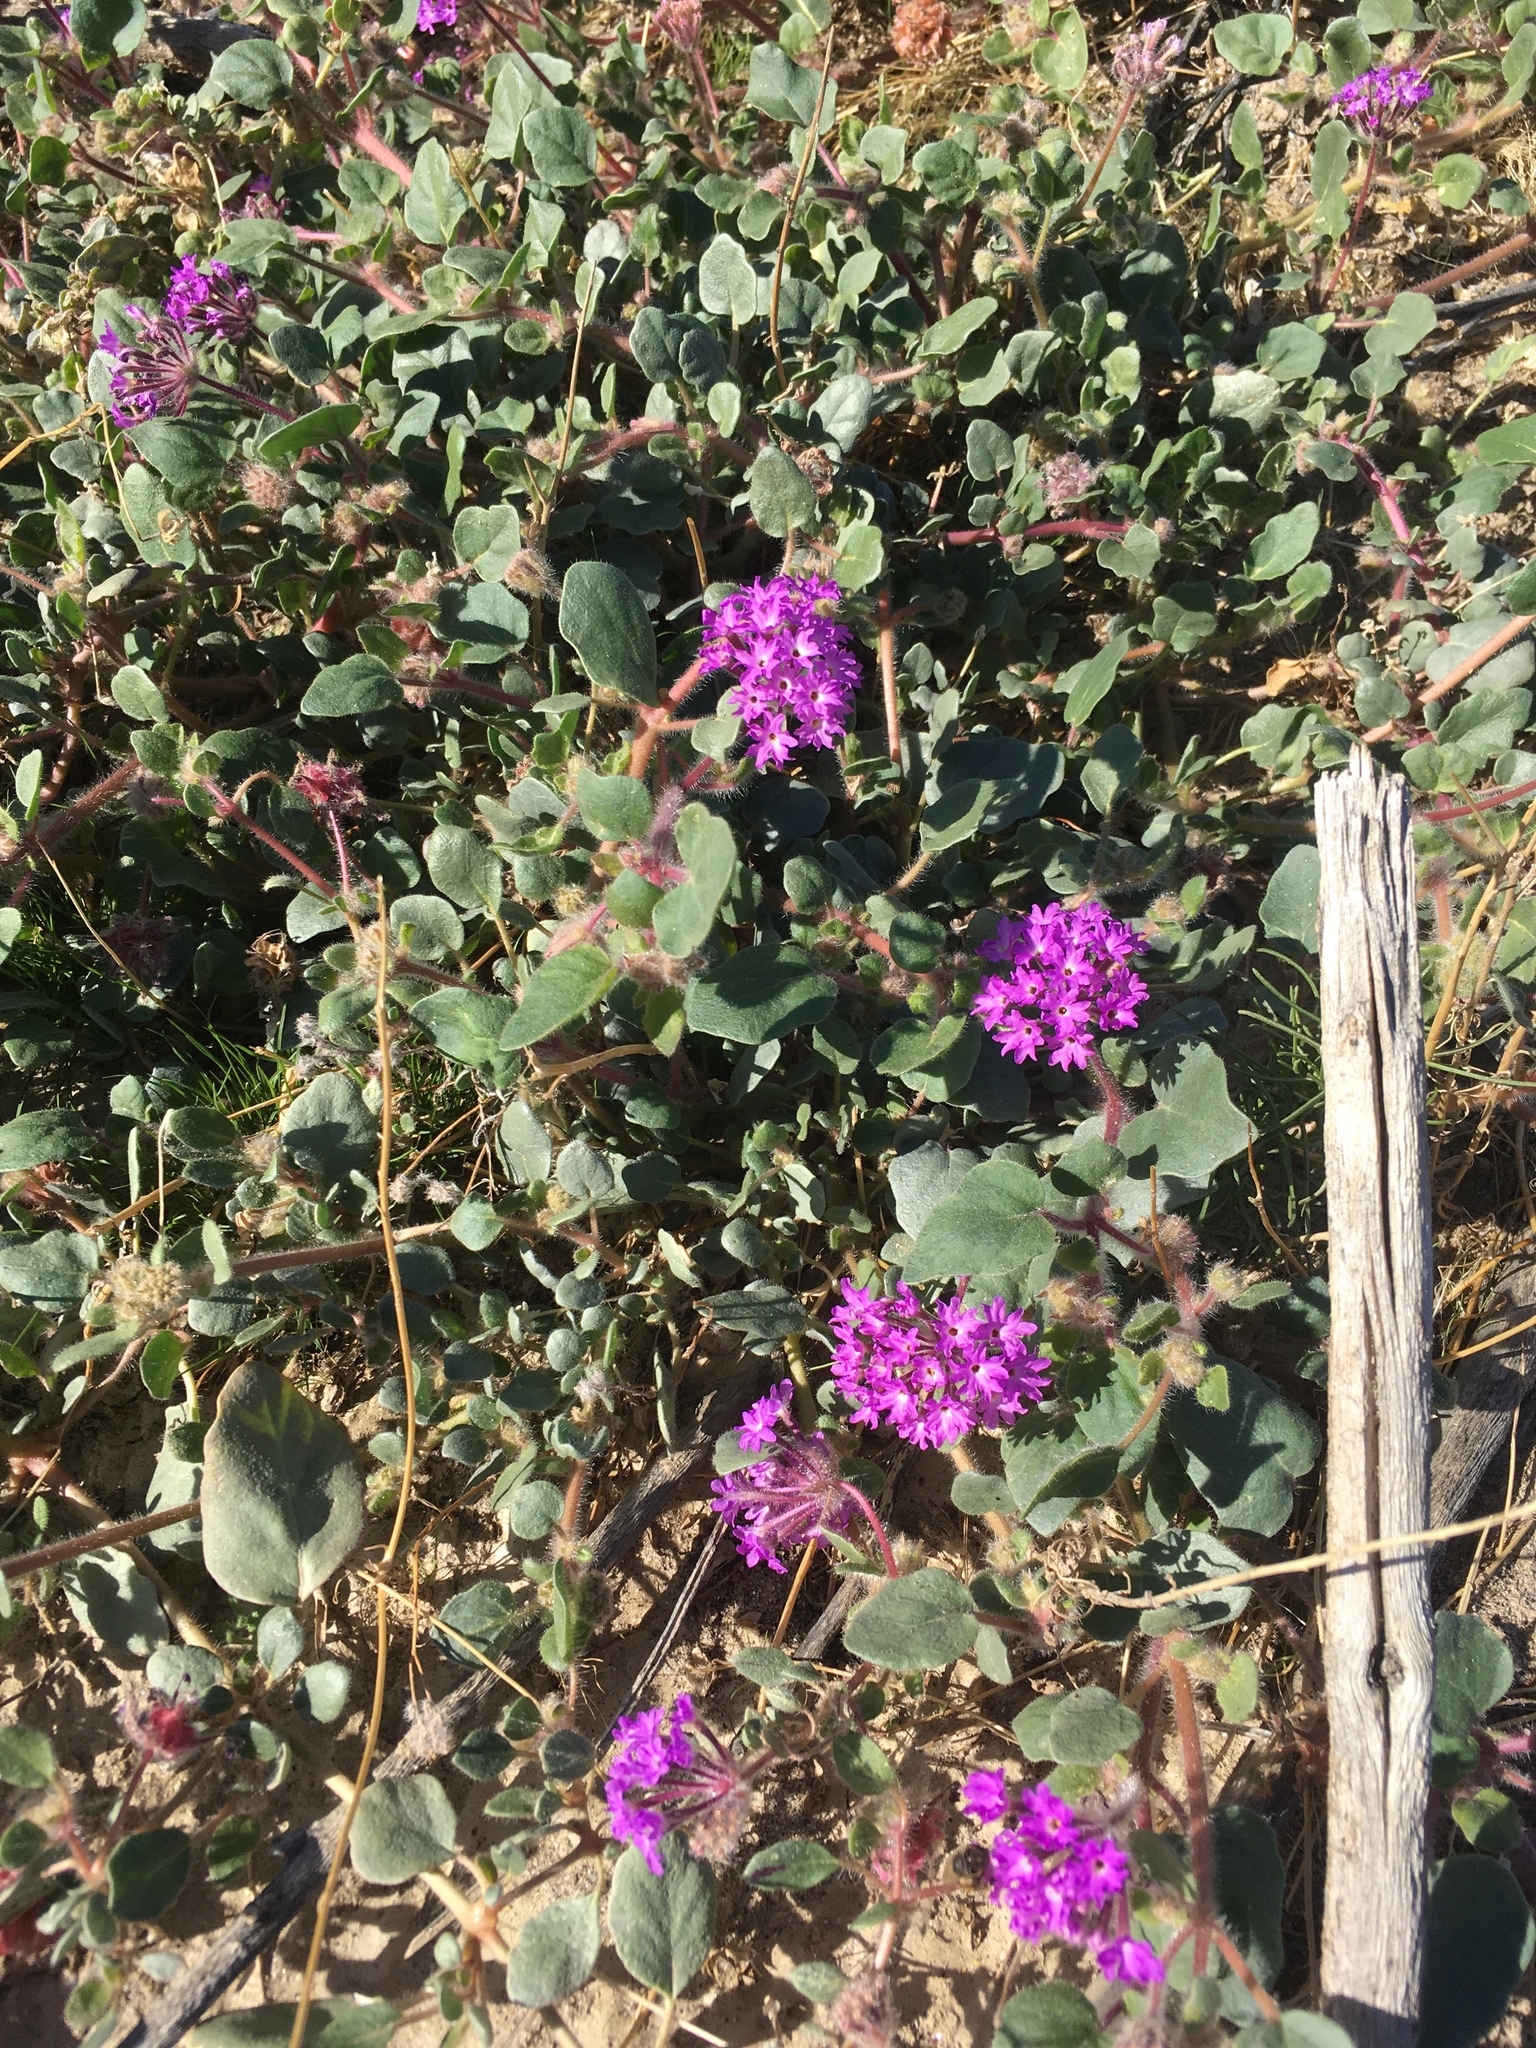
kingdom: Plantae
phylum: Tracheophyta
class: Magnoliopsida
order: Caryophyllales
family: Nyctaginaceae
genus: Abronia
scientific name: Abronia villosa
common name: Desert sand-verbena
